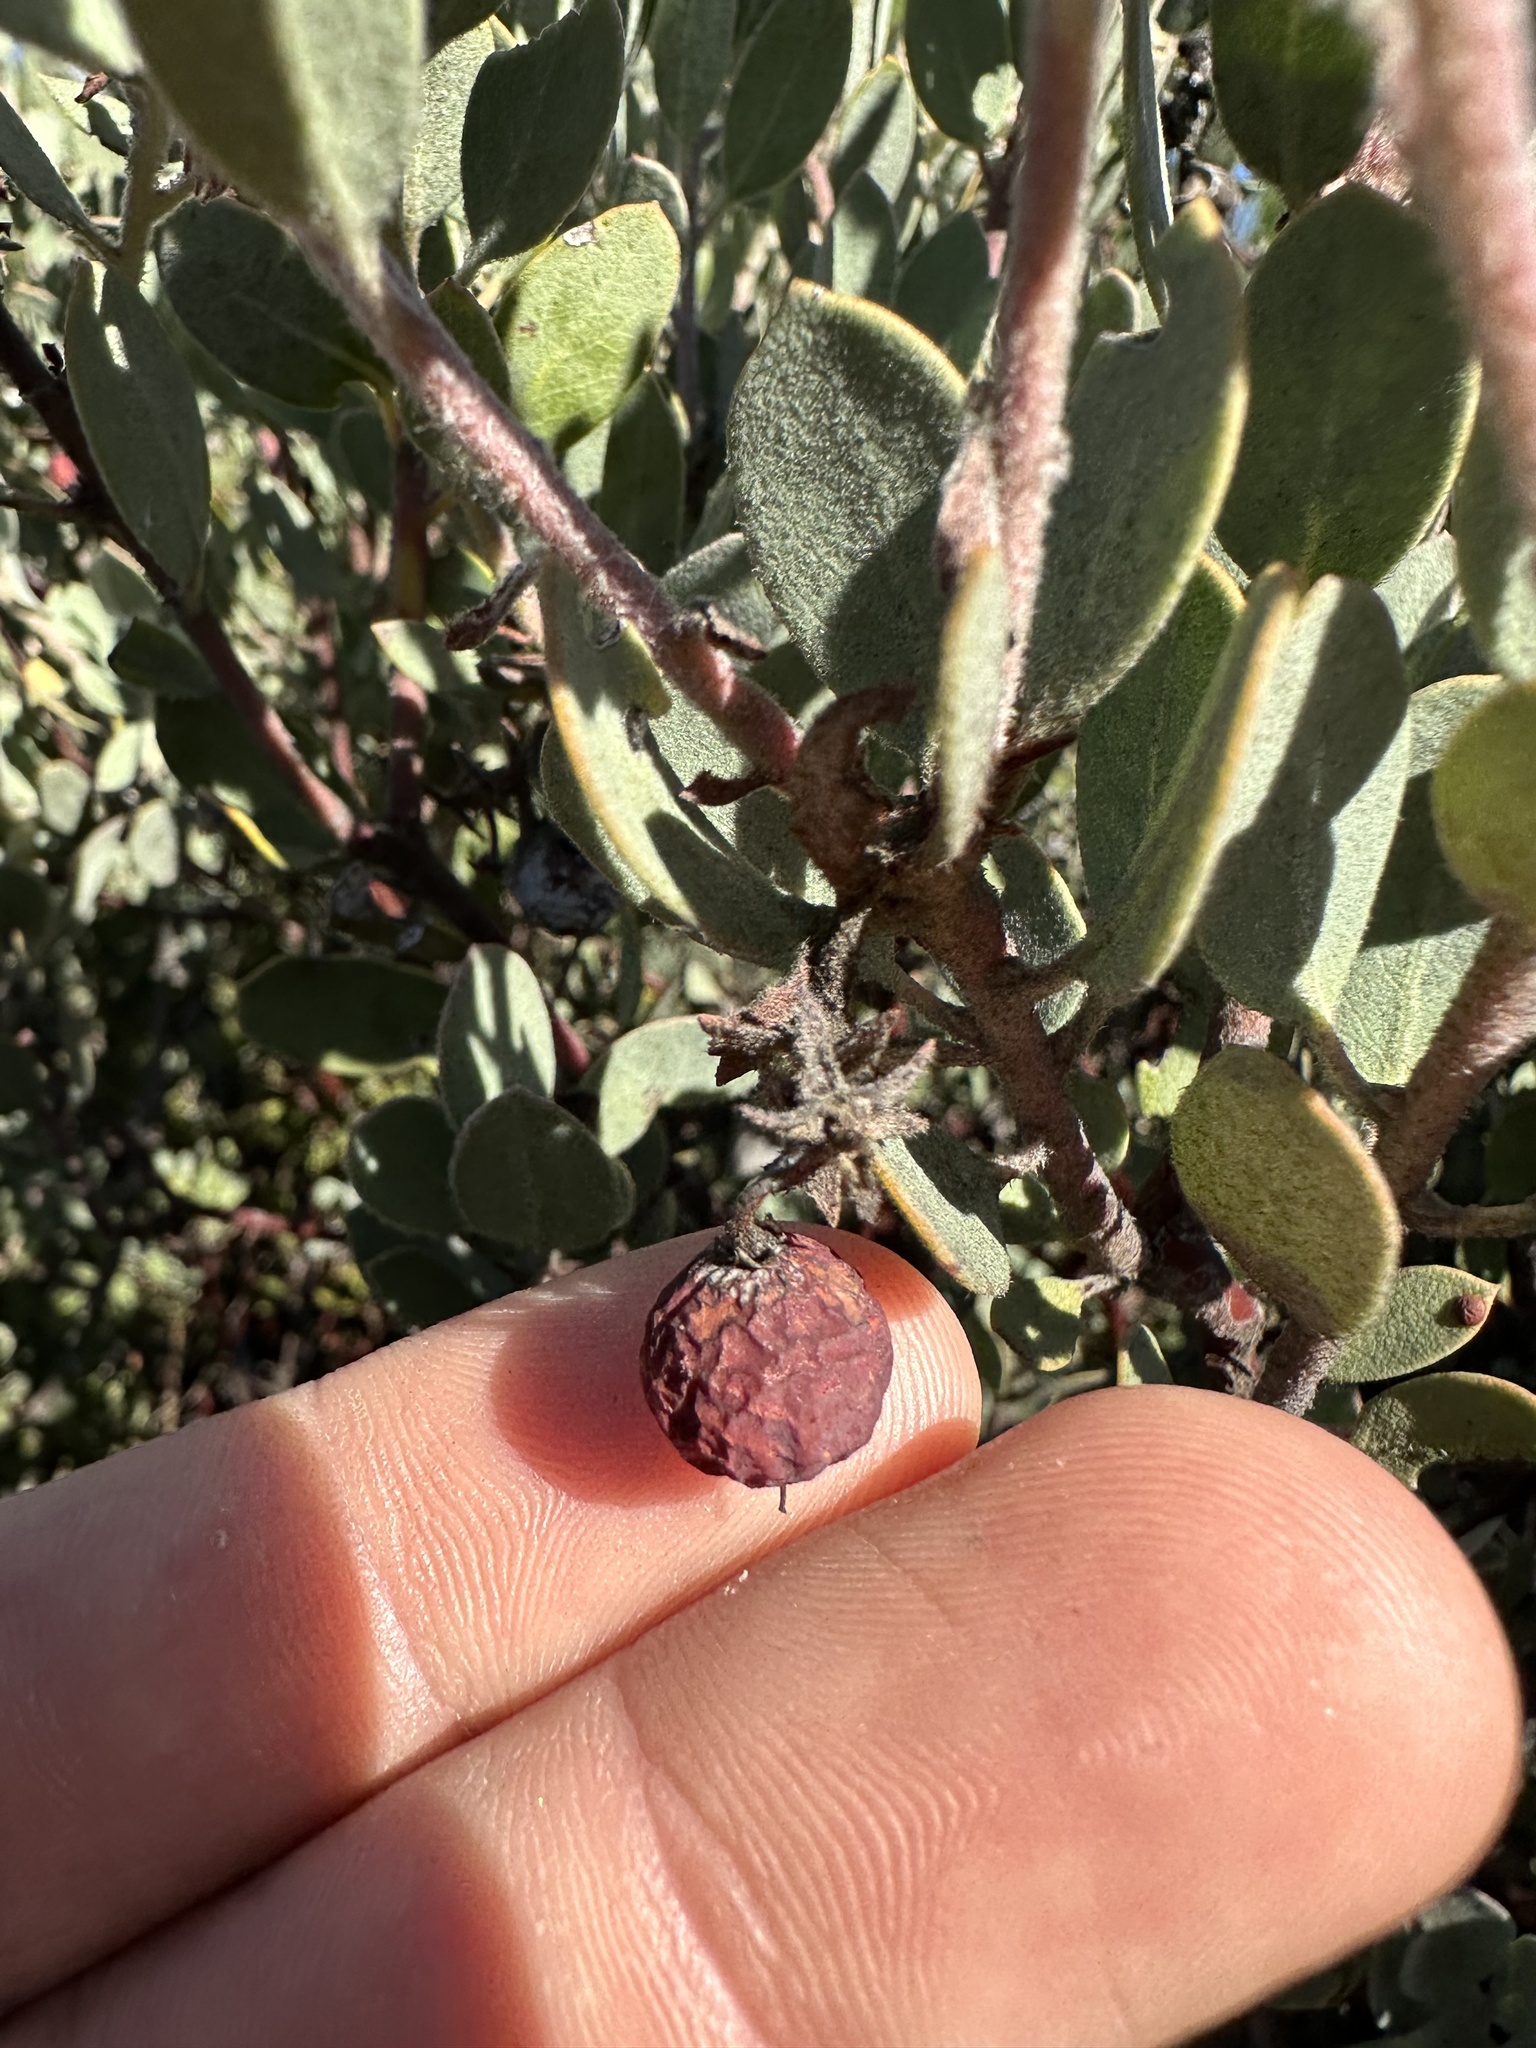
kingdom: Plantae
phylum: Tracheophyta
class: Magnoliopsida
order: Ericales
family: Ericaceae
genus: Arctostaphylos
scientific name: Arctostaphylos silvicola
